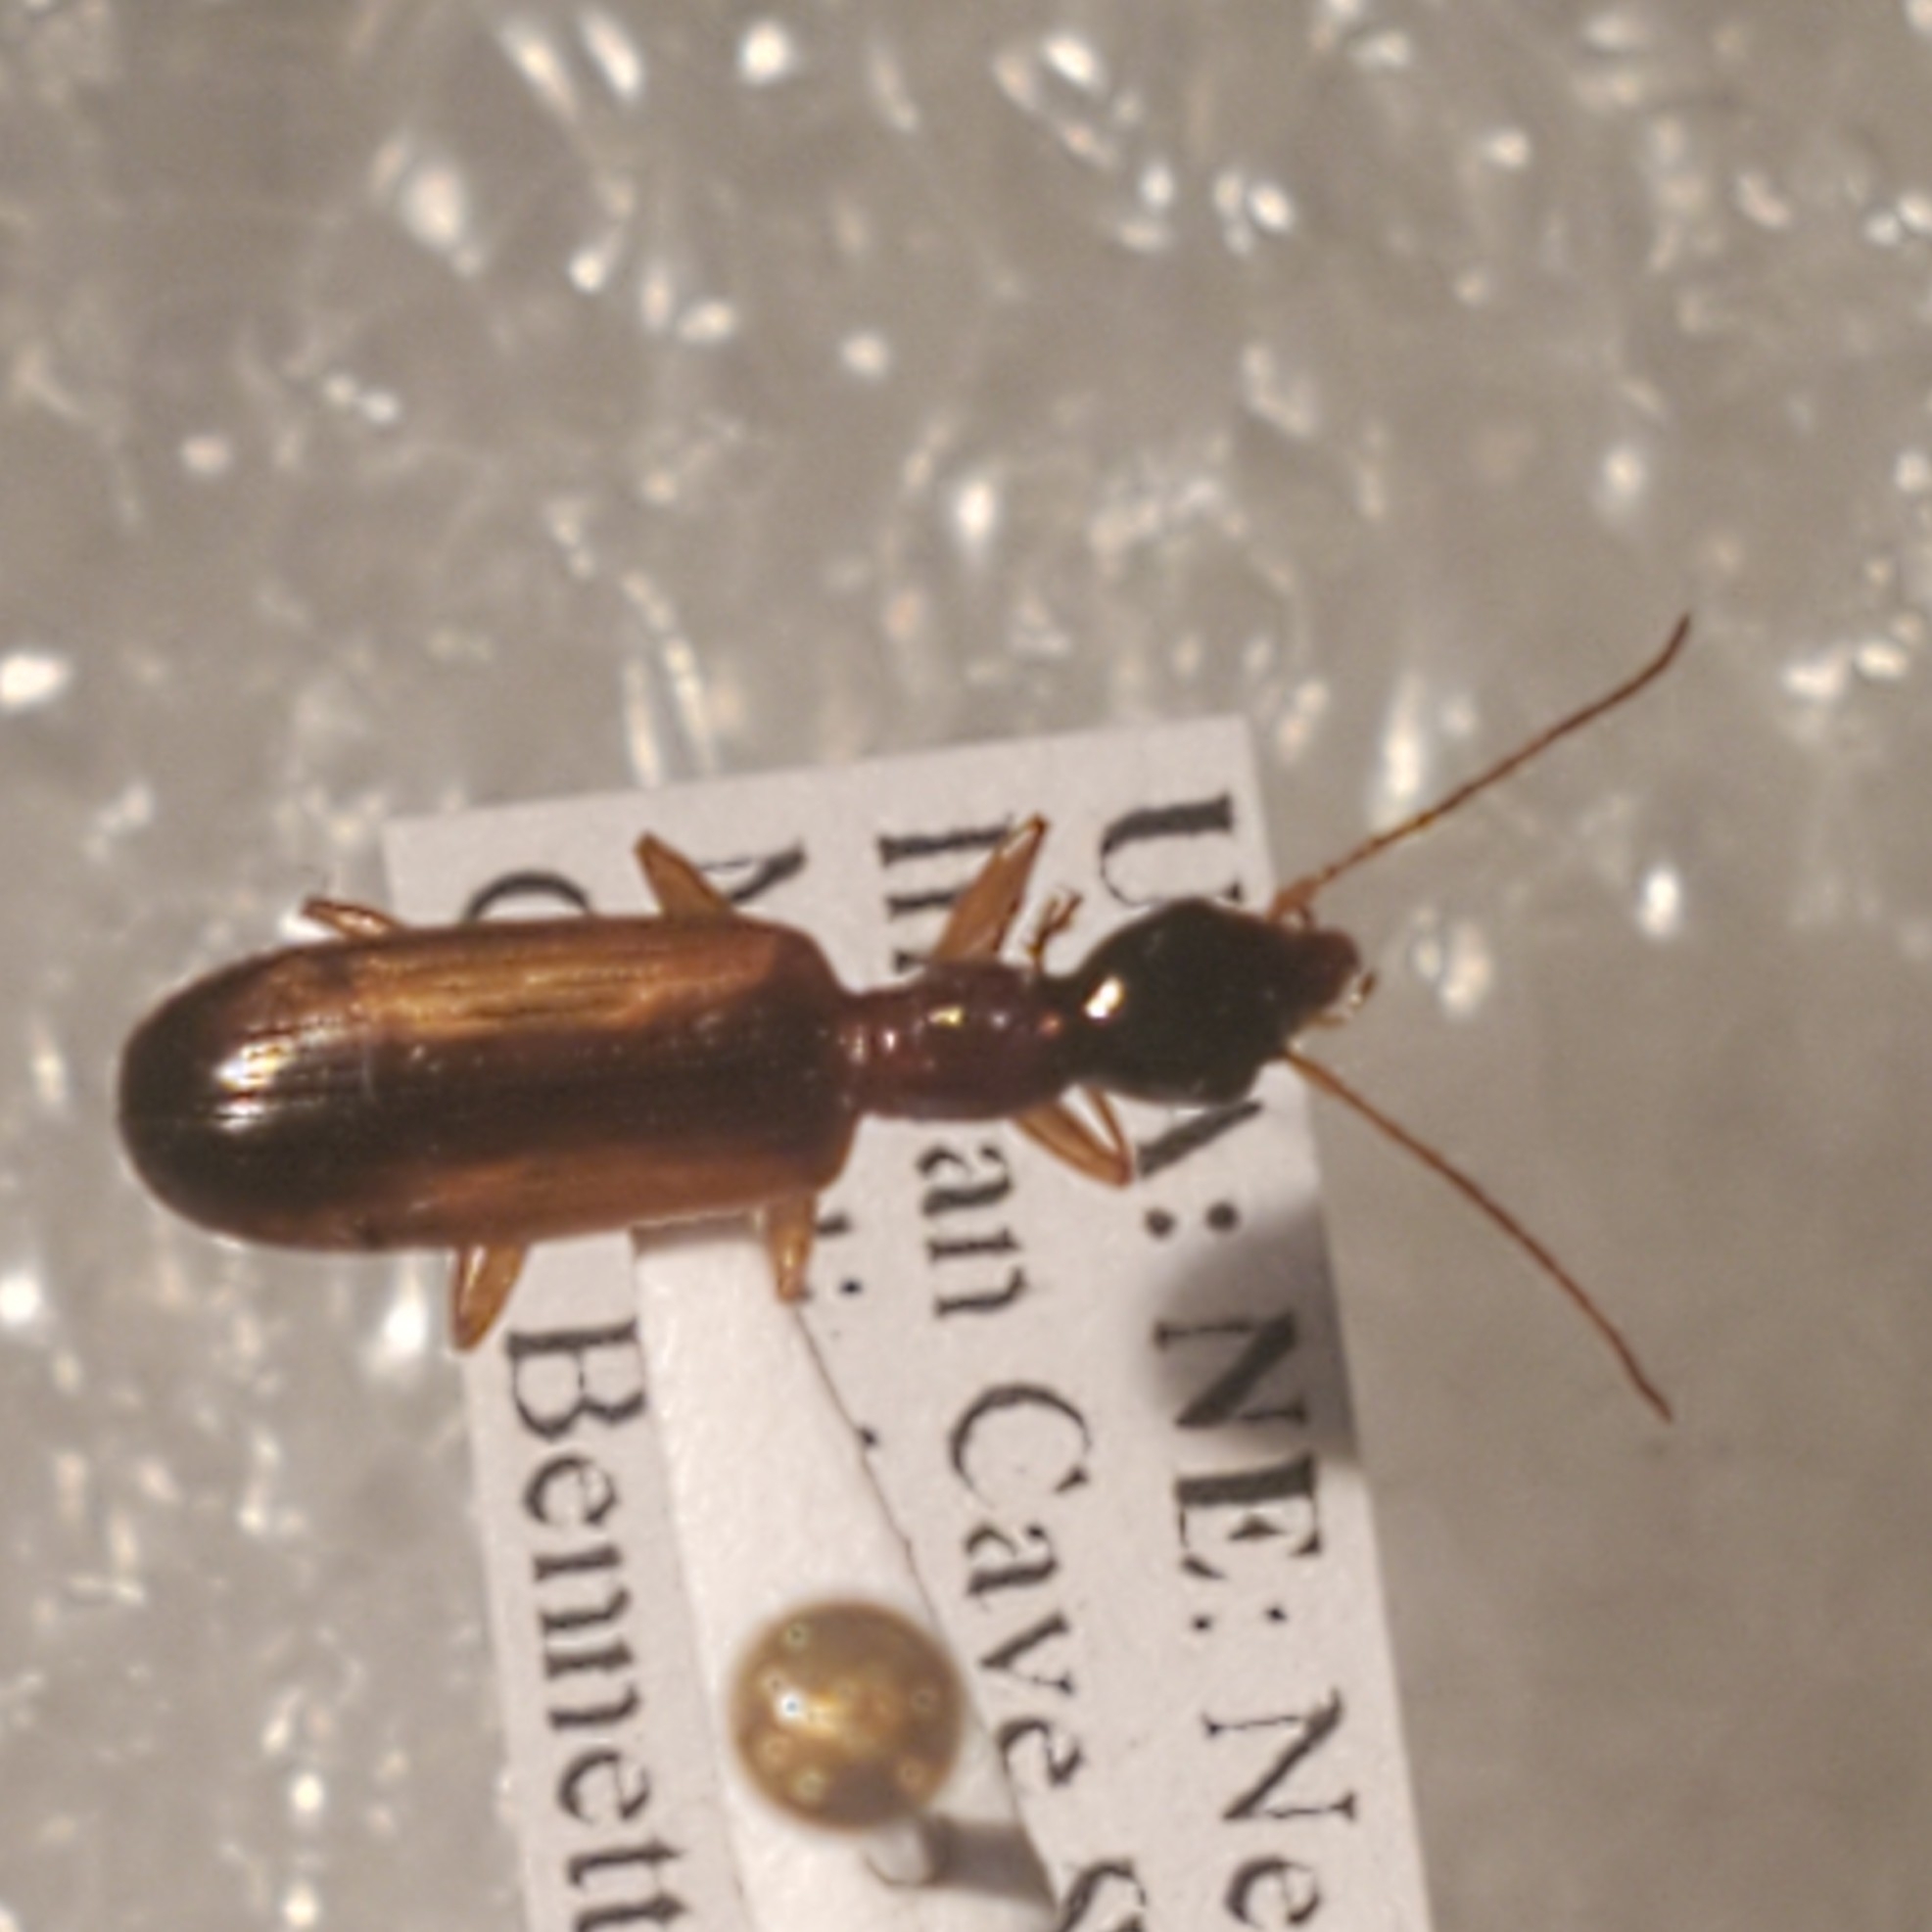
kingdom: Animalia
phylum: Arthropoda
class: Insecta
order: Coleoptera
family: Carabidae
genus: Leptotrachelus
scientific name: Leptotrachelus dorsalis
